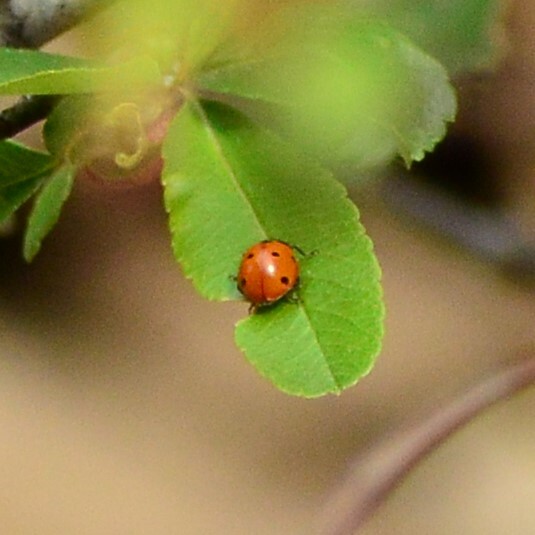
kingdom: Animalia
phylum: Arthropoda
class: Insecta
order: Coleoptera
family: Coccinellidae
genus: Coccinella
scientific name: Coccinella septempunctata
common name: Sevenspotted lady beetle
